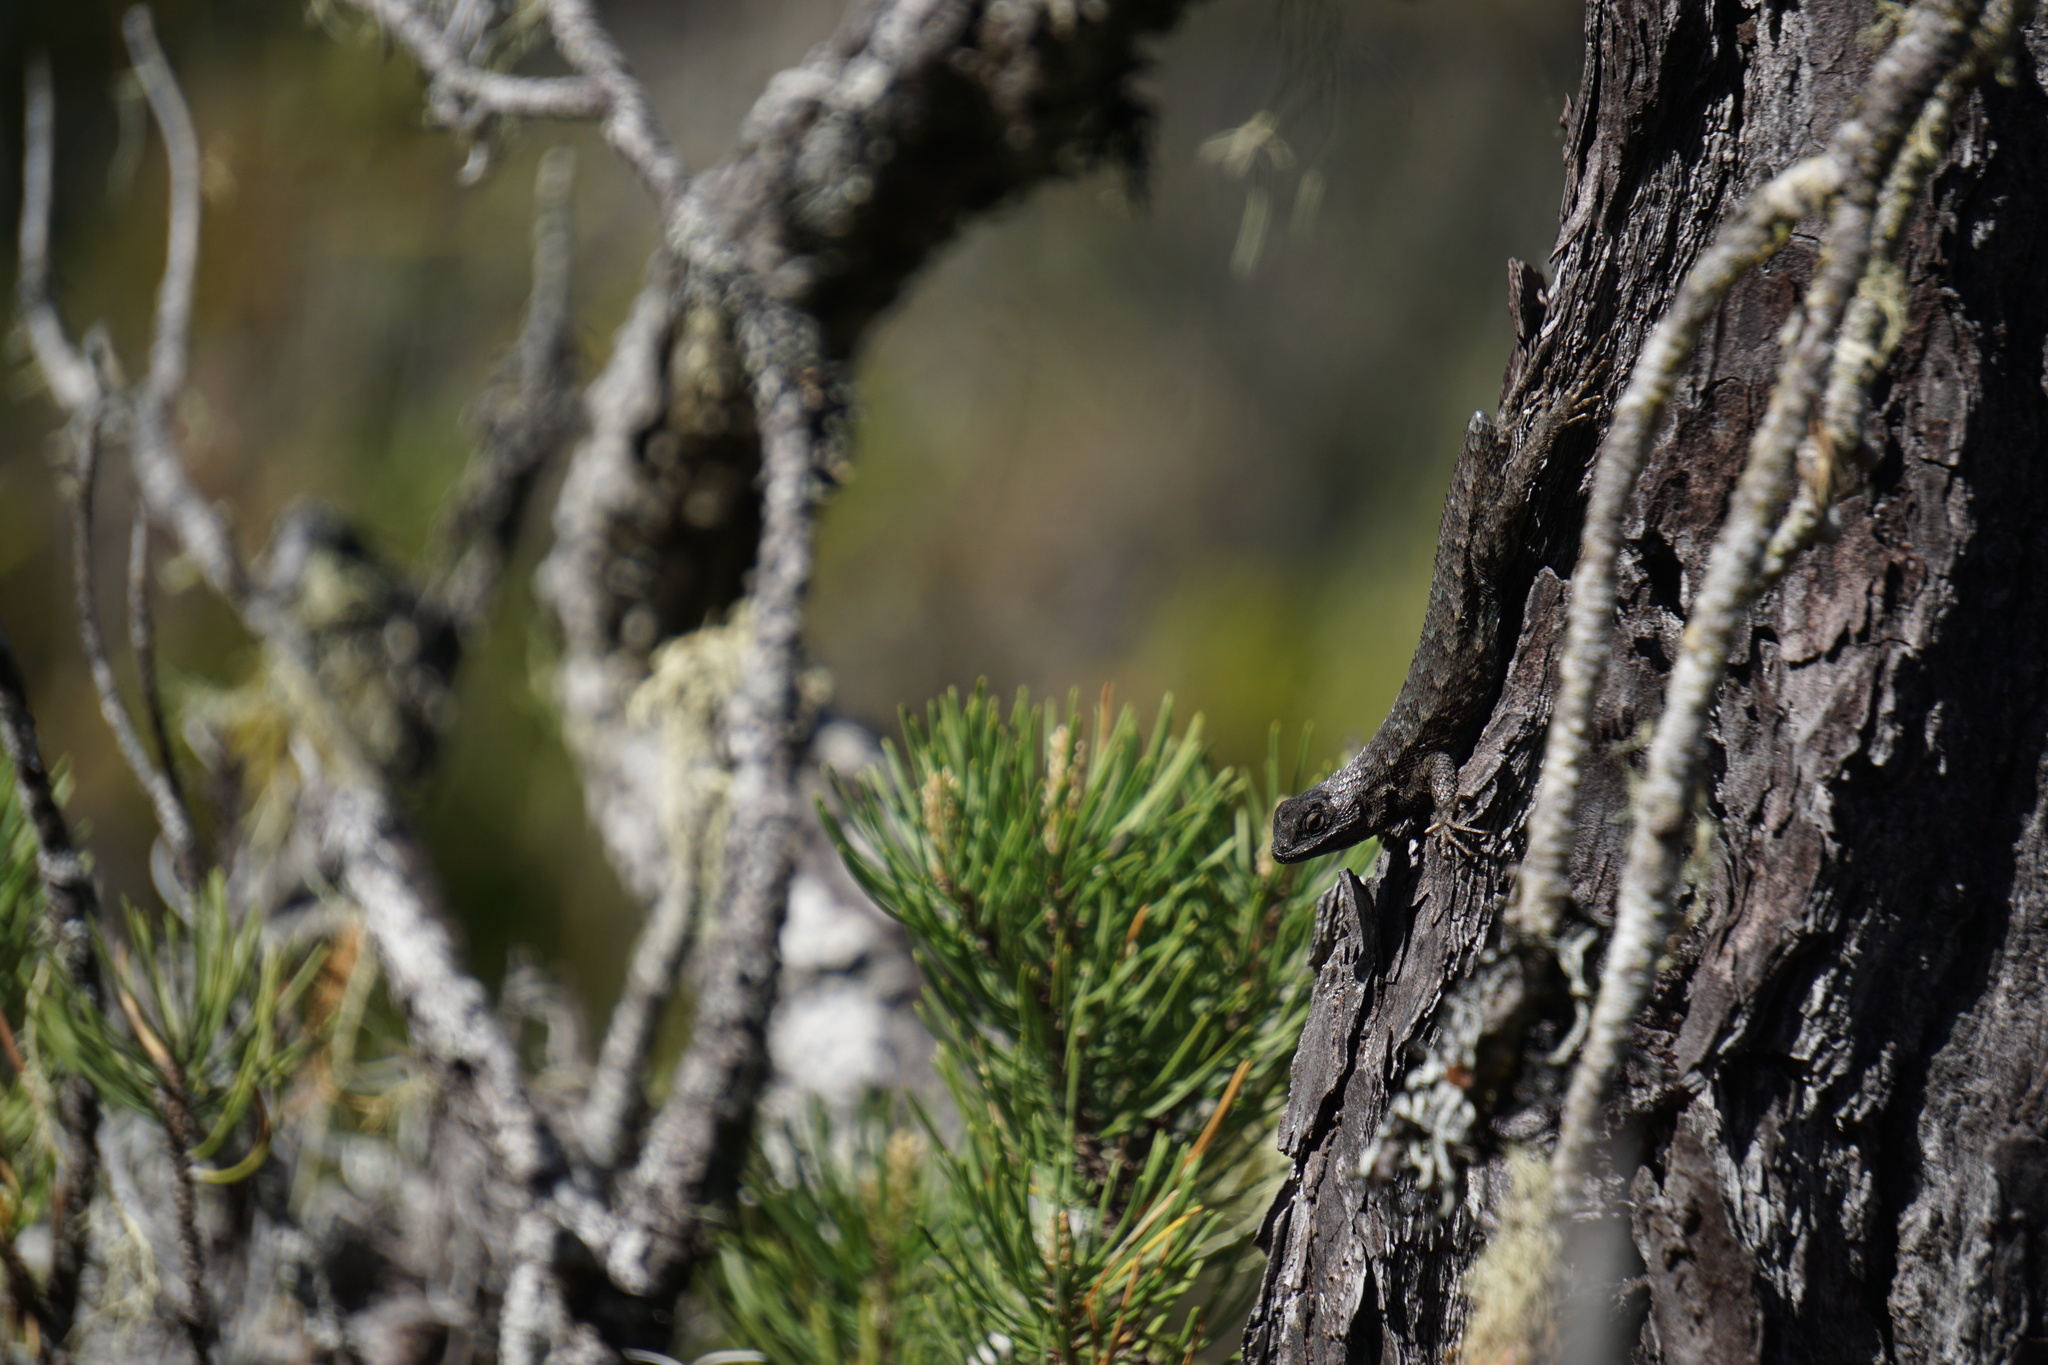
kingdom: Animalia
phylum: Chordata
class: Squamata
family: Phrynosomatidae
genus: Sceloporus
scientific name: Sceloporus occidentalis
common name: Western fence lizard
